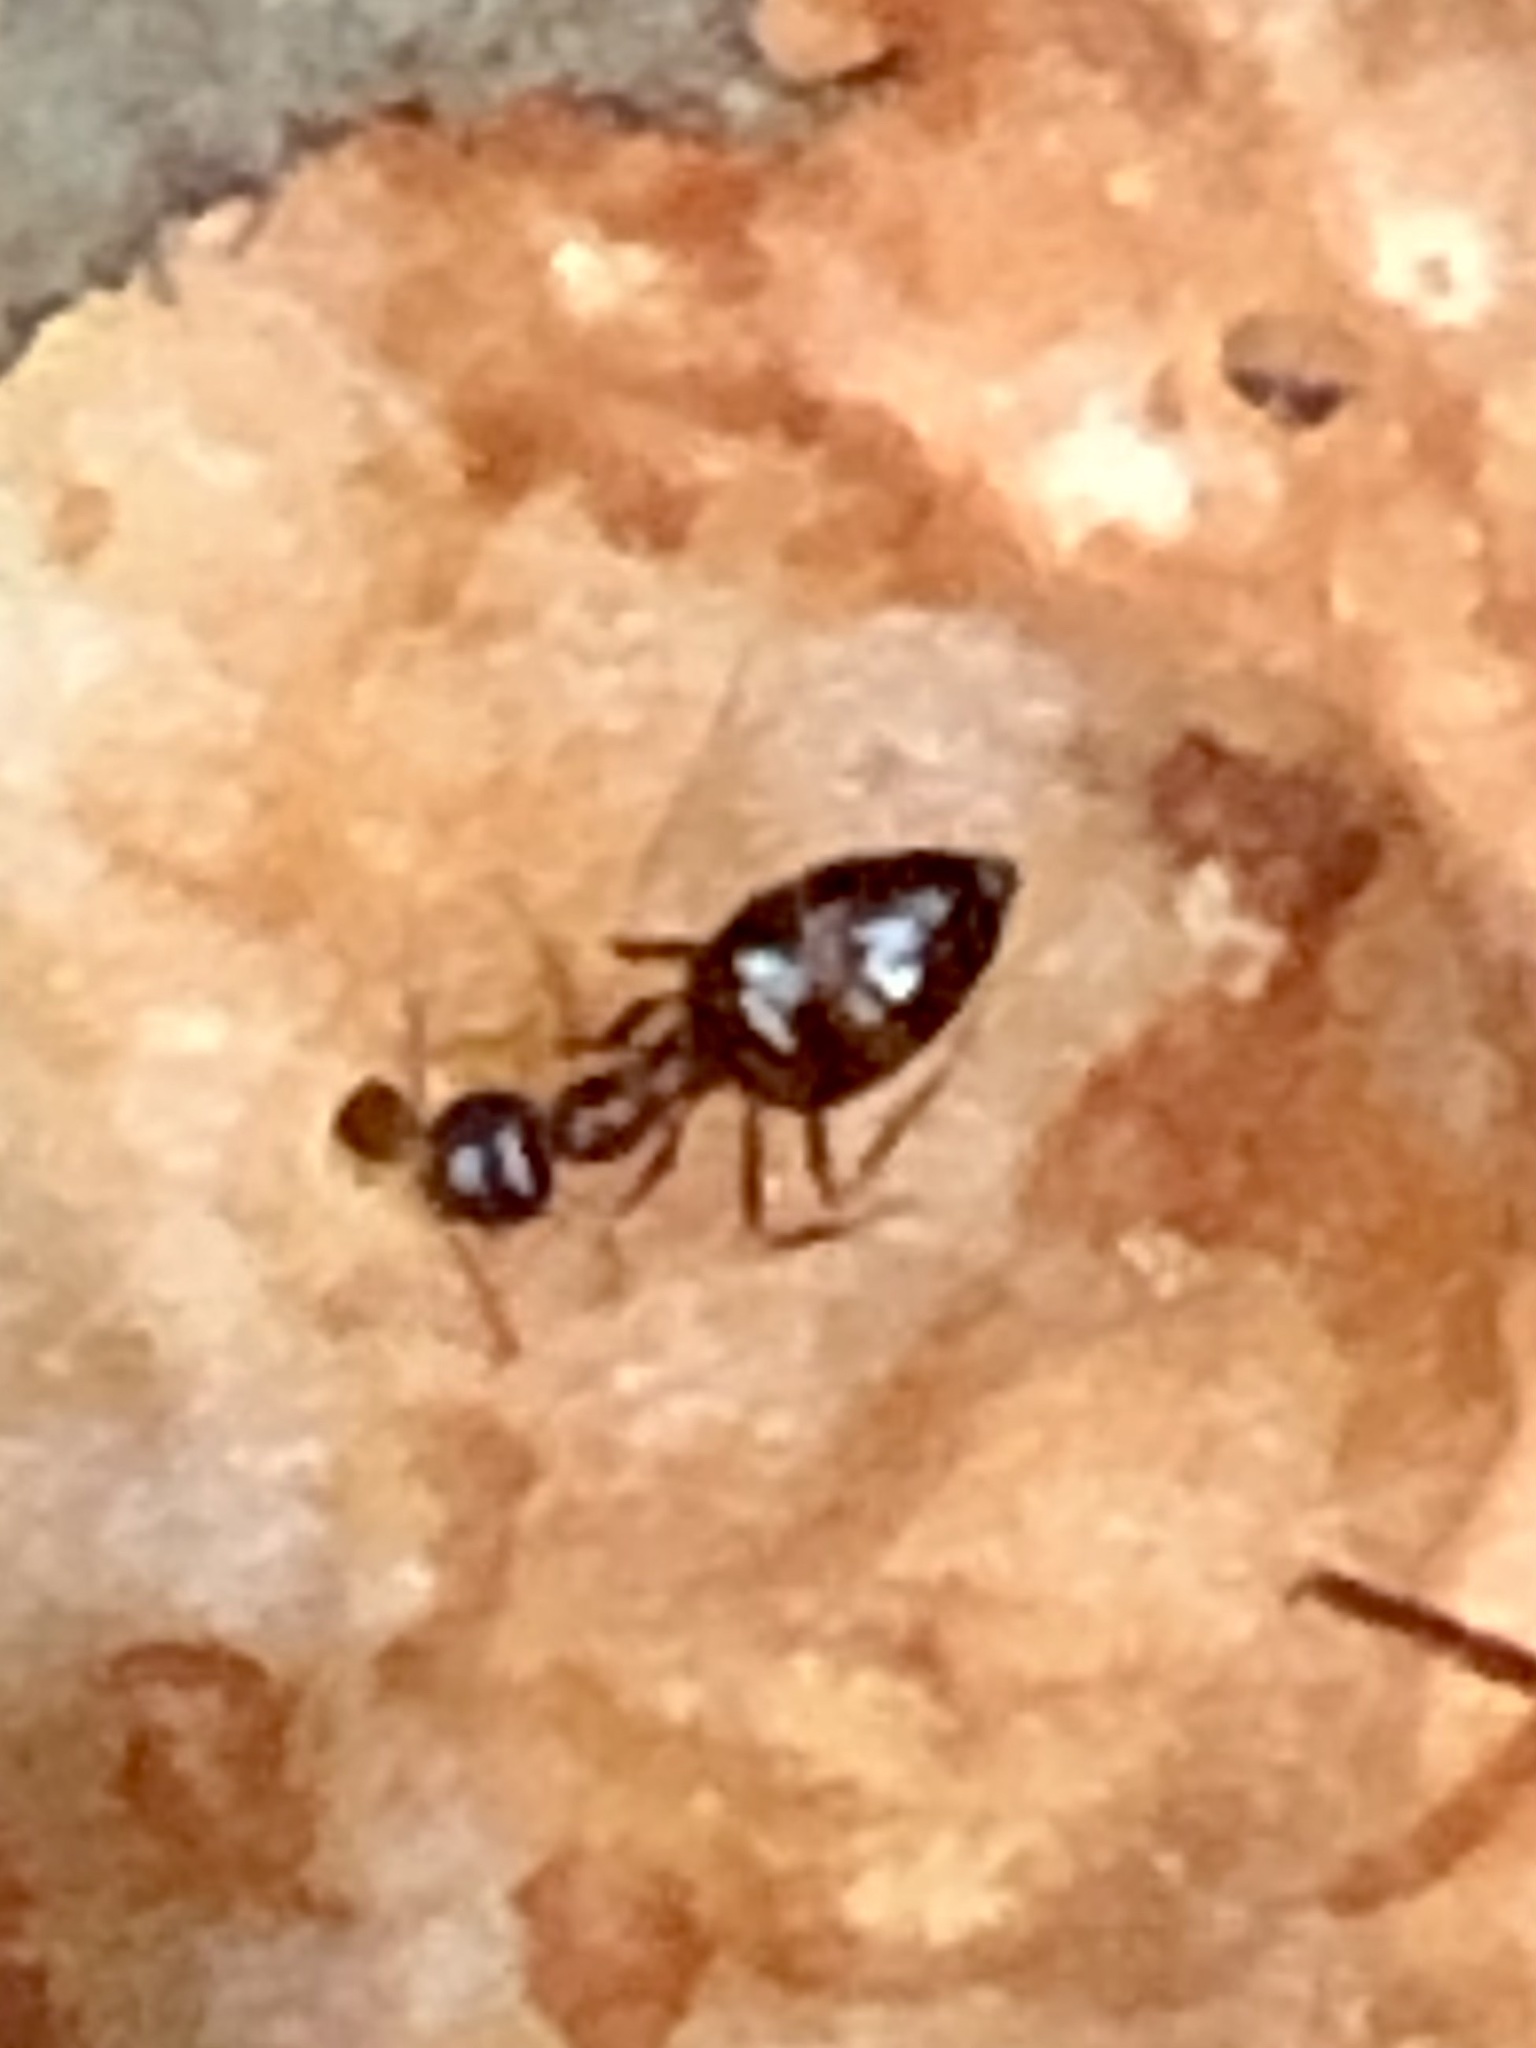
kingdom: Animalia
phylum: Arthropoda
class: Insecta
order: Hymenoptera
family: Formicidae
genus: Prenolepis
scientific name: Prenolepis imparis
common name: Small honey ant
